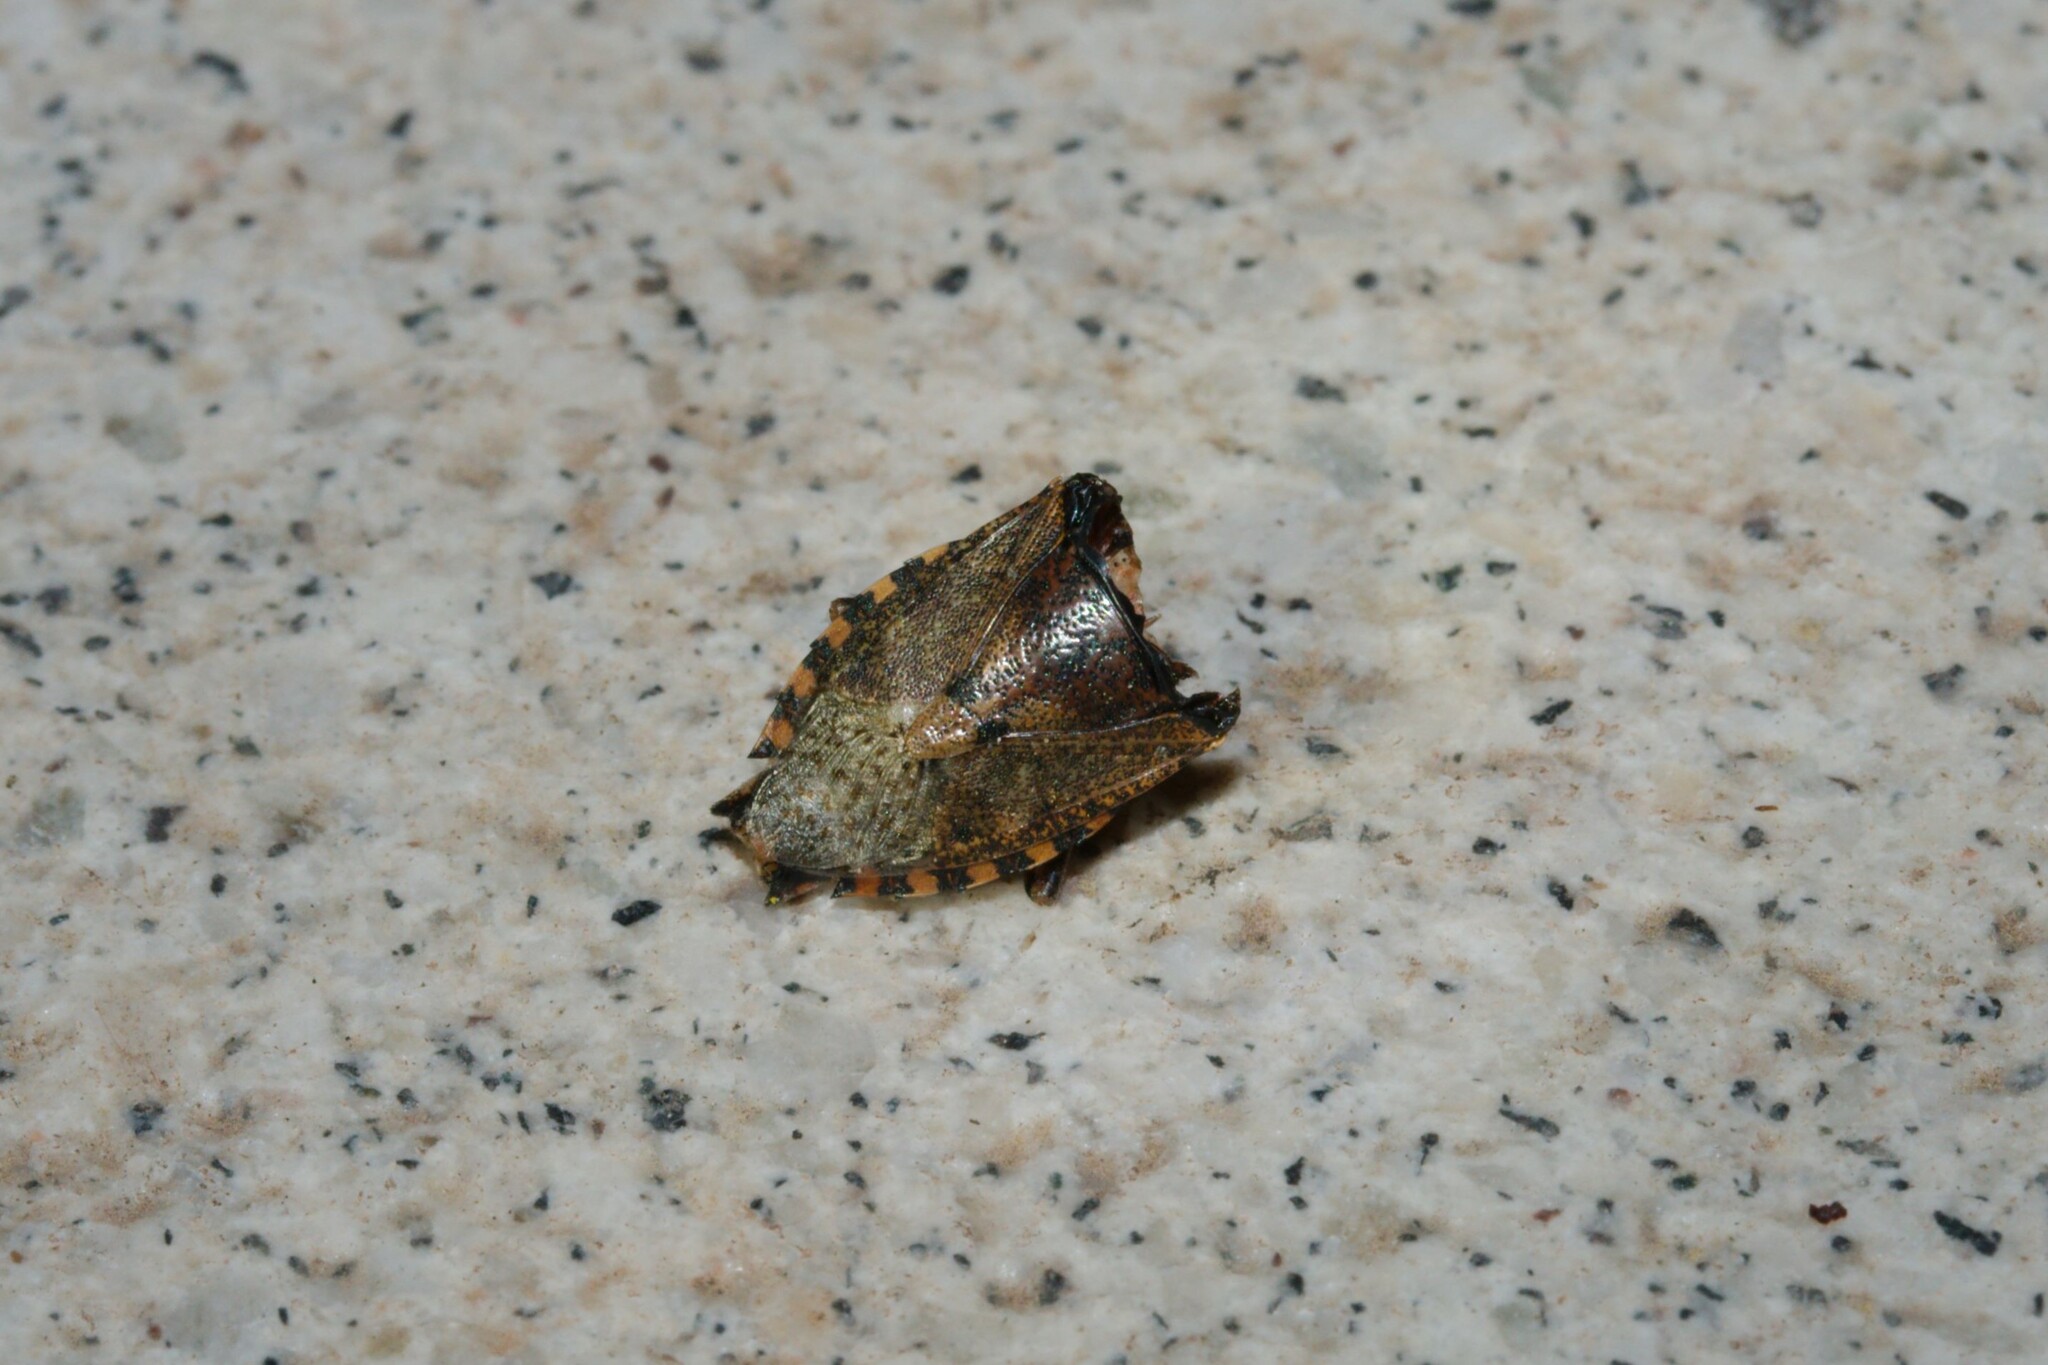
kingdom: Animalia
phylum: Arthropoda
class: Insecta
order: Hemiptera
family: Pentatomidae
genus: Rhaphigaster
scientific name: Rhaphigaster nebulosa
